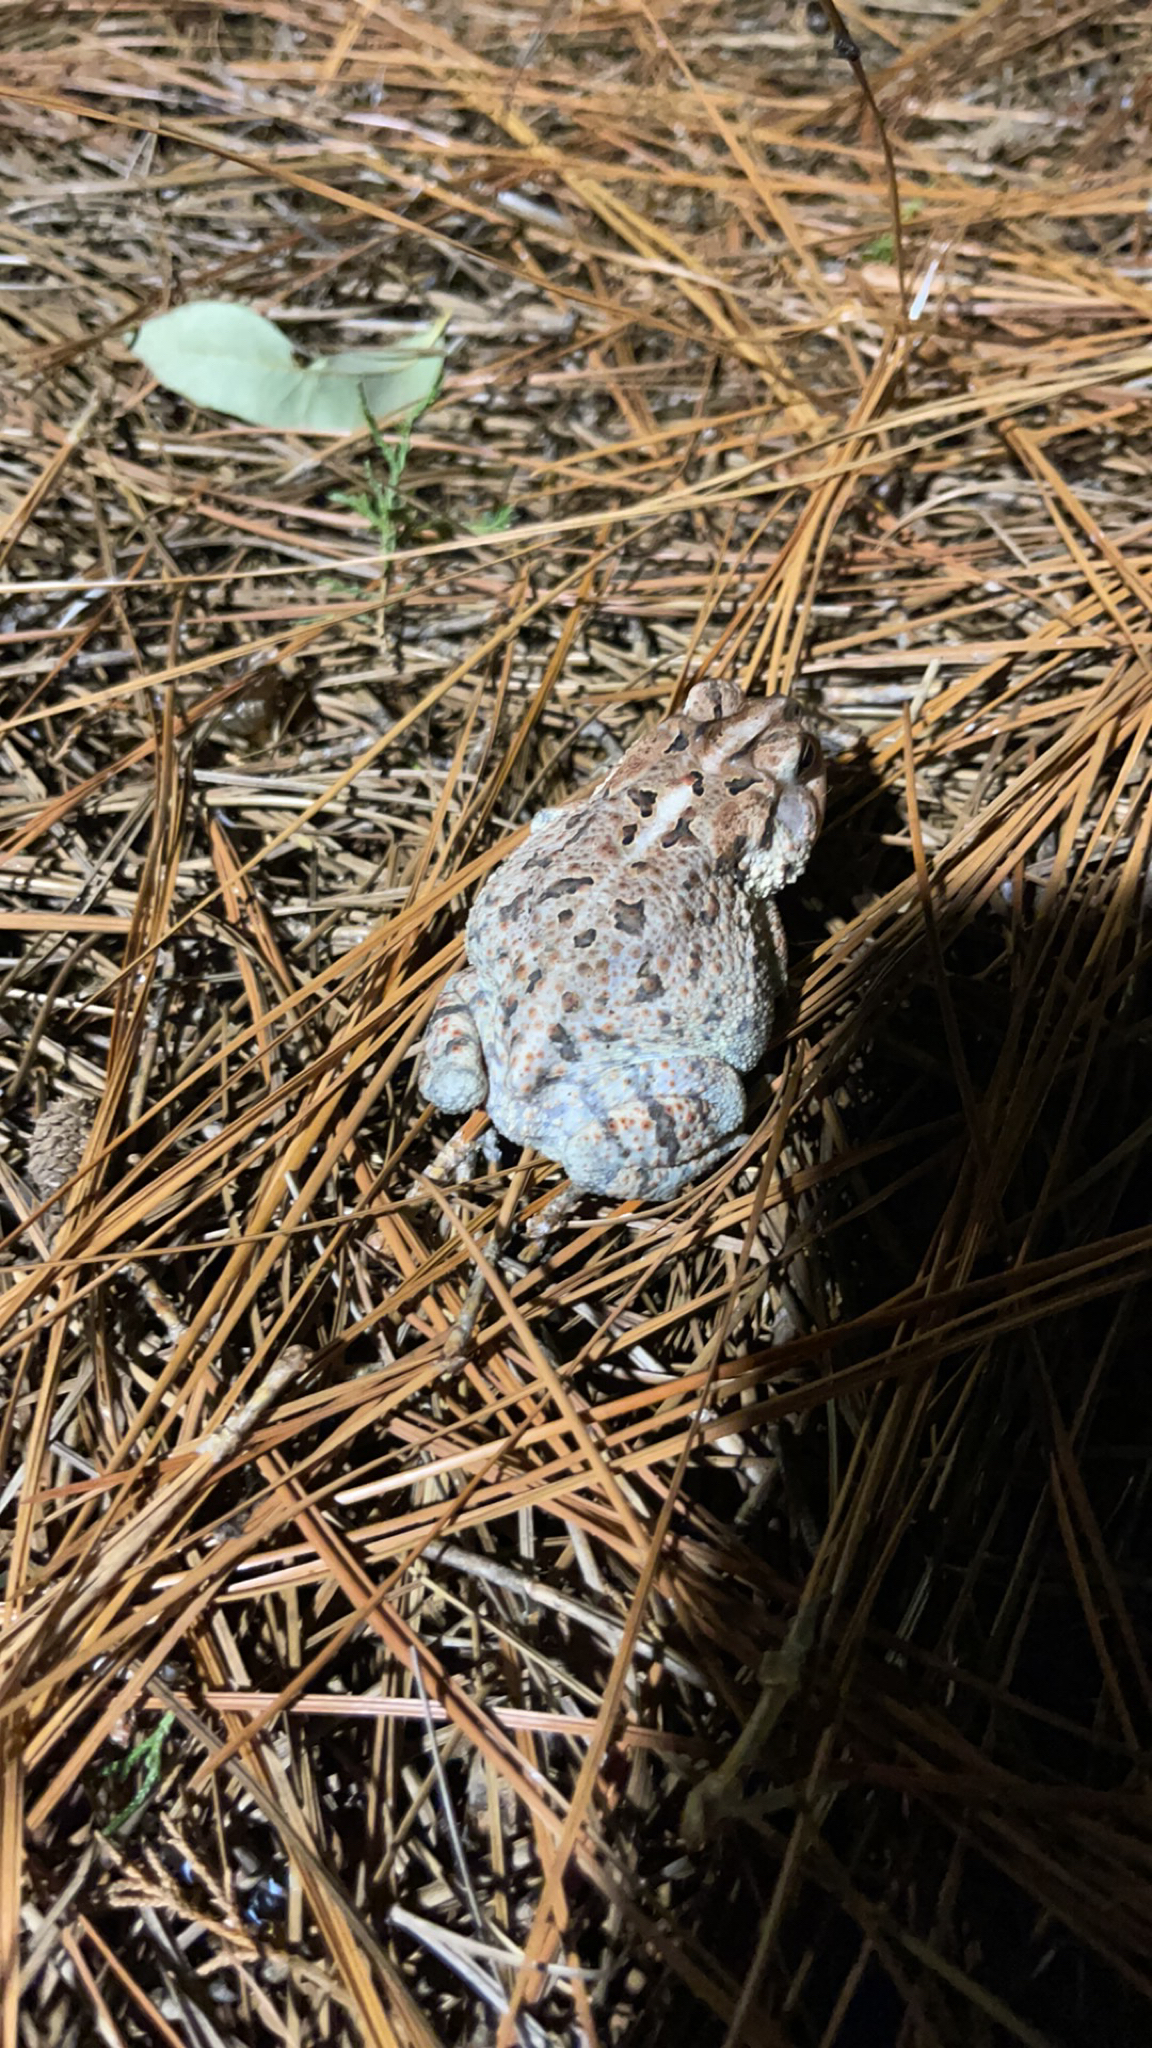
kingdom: Animalia
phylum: Chordata
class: Amphibia
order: Anura
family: Bufonidae
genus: Anaxyrus
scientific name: Anaxyrus terrestris
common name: Southern toad
